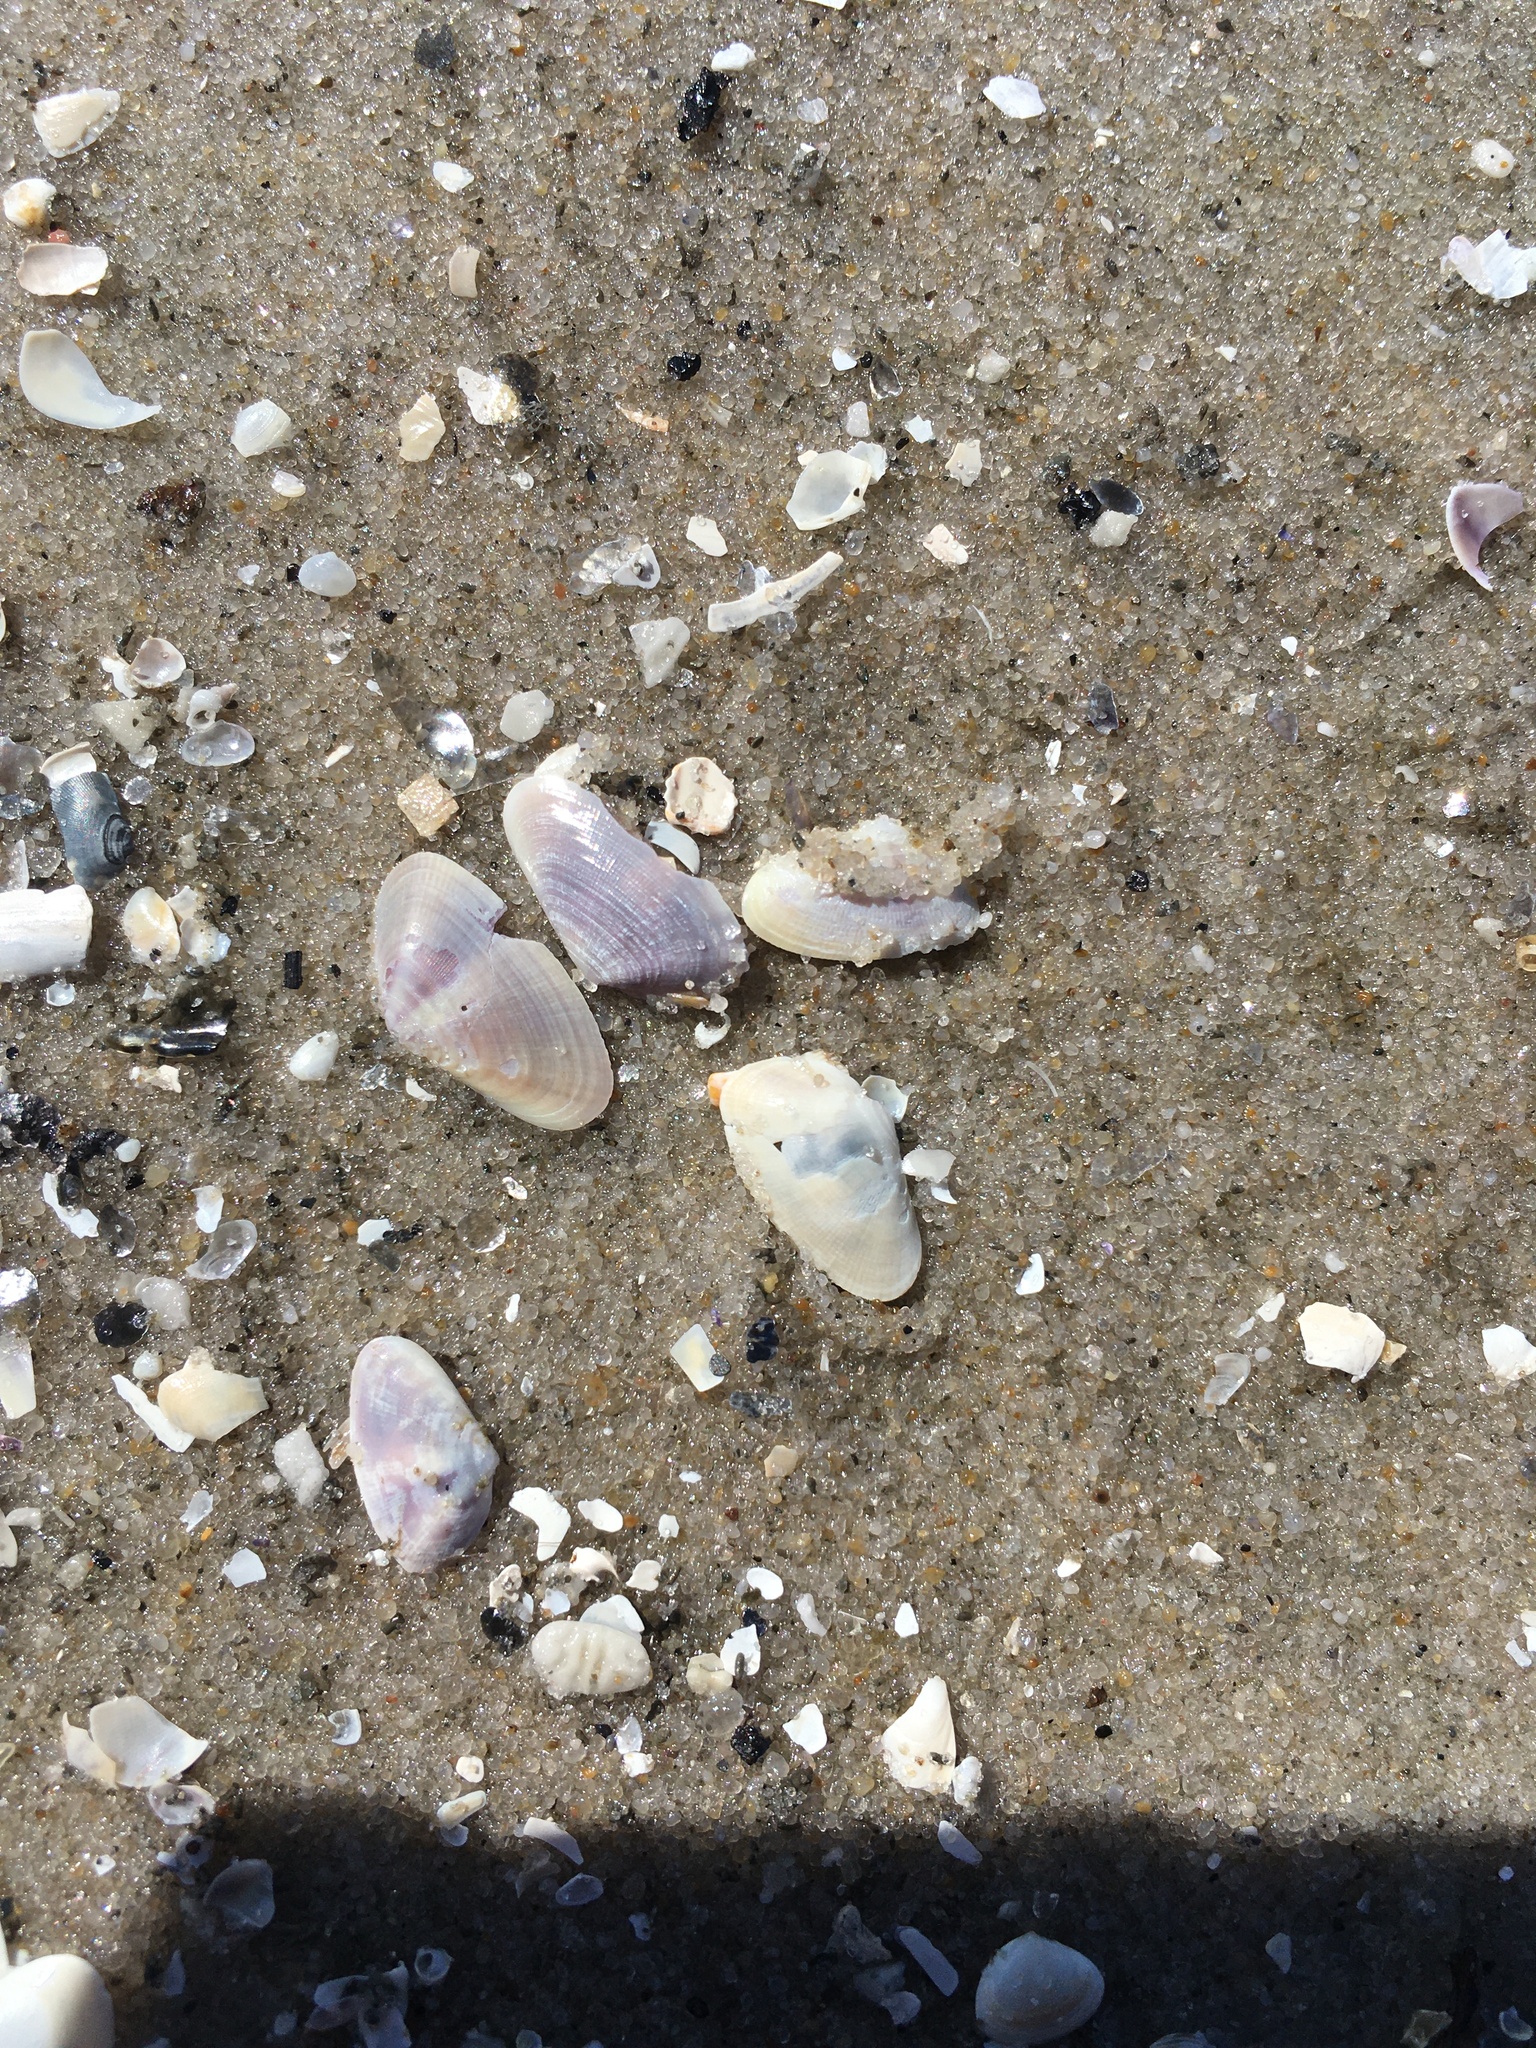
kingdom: Animalia
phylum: Mollusca
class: Bivalvia
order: Cardiida
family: Donacidae
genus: Donax
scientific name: Donax fossor
